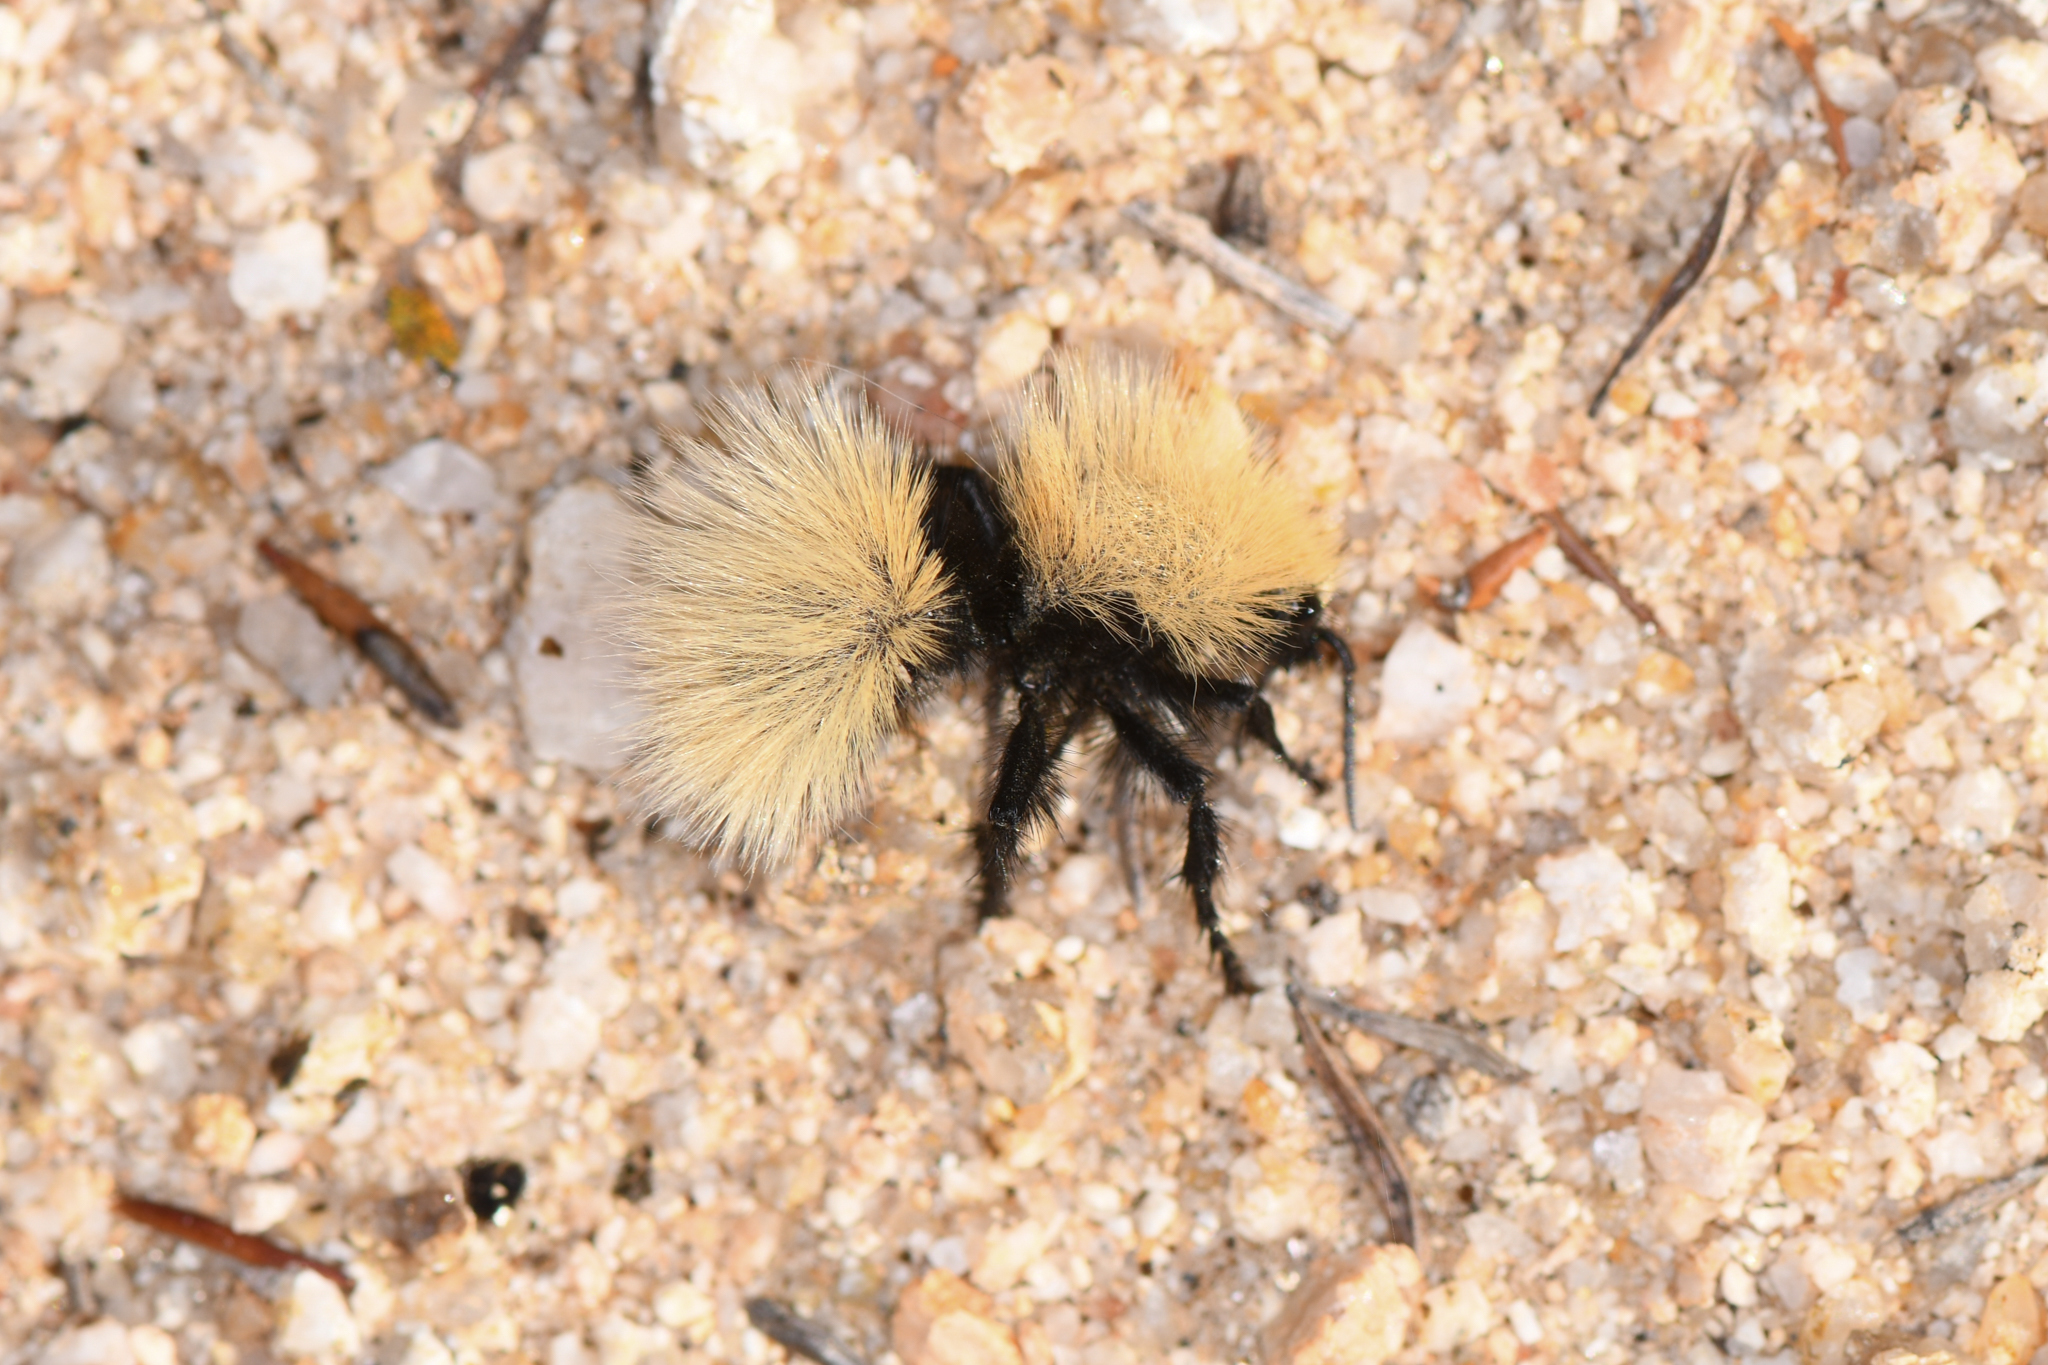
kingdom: Animalia
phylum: Arthropoda
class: Insecta
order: Hymenoptera
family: Mutillidae
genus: Dasymutilla
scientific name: Dasymutilla
